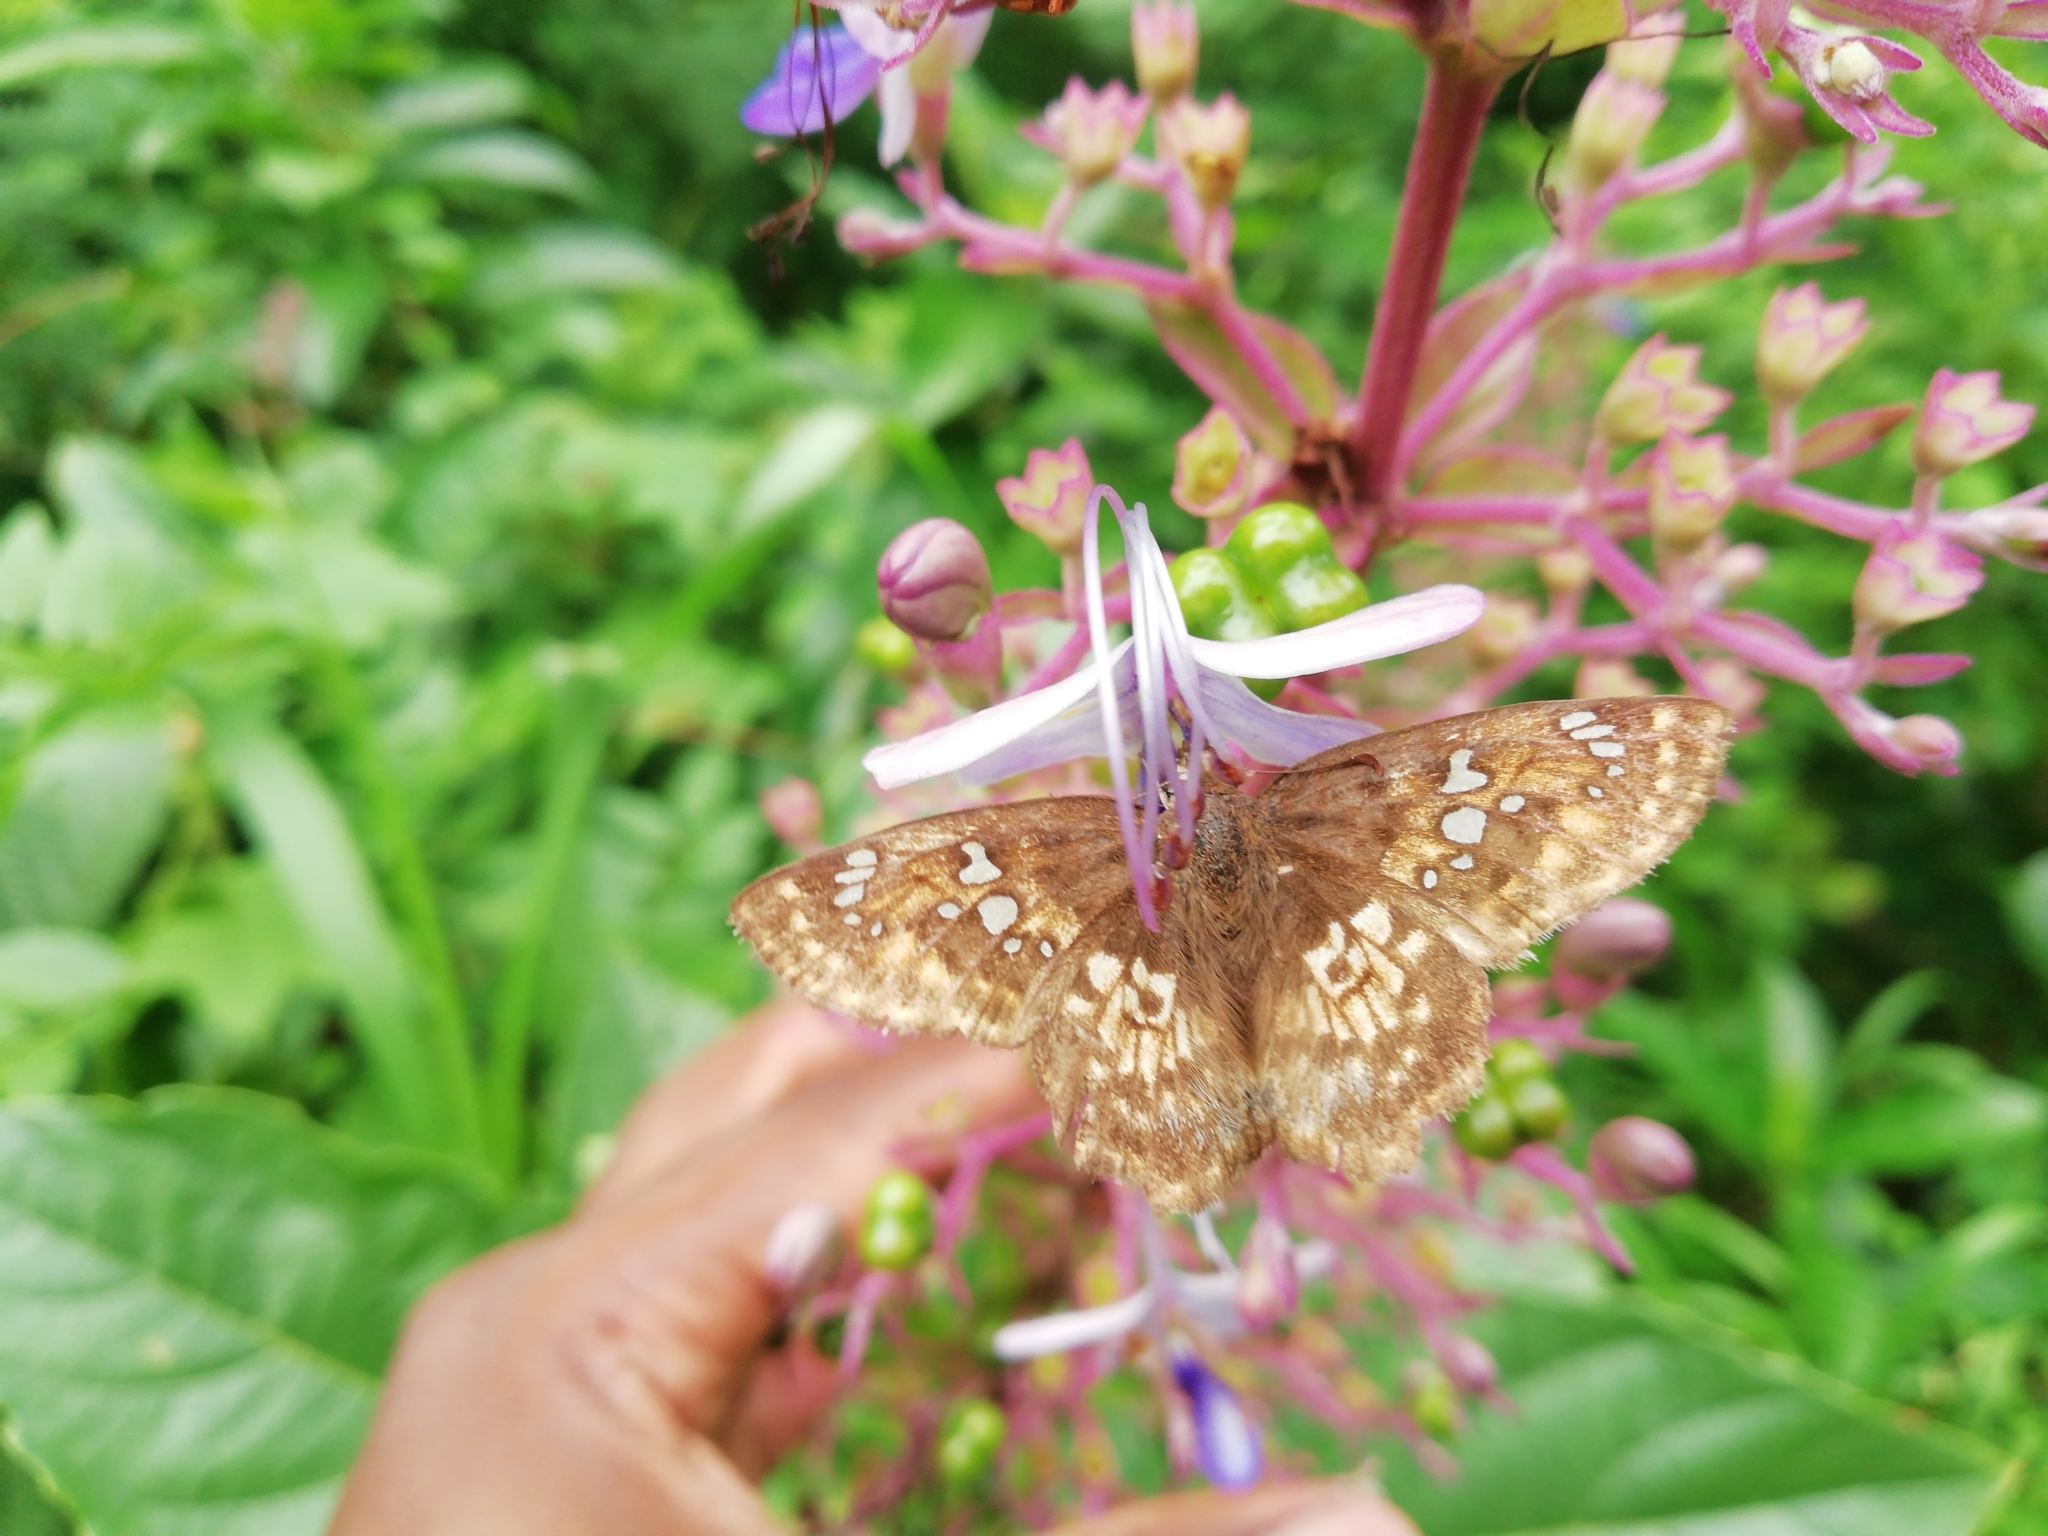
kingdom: Animalia
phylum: Arthropoda
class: Insecta
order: Lepidoptera
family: Hesperiidae
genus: Caprona
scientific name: Caprona ransonnettii
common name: Golden angle
